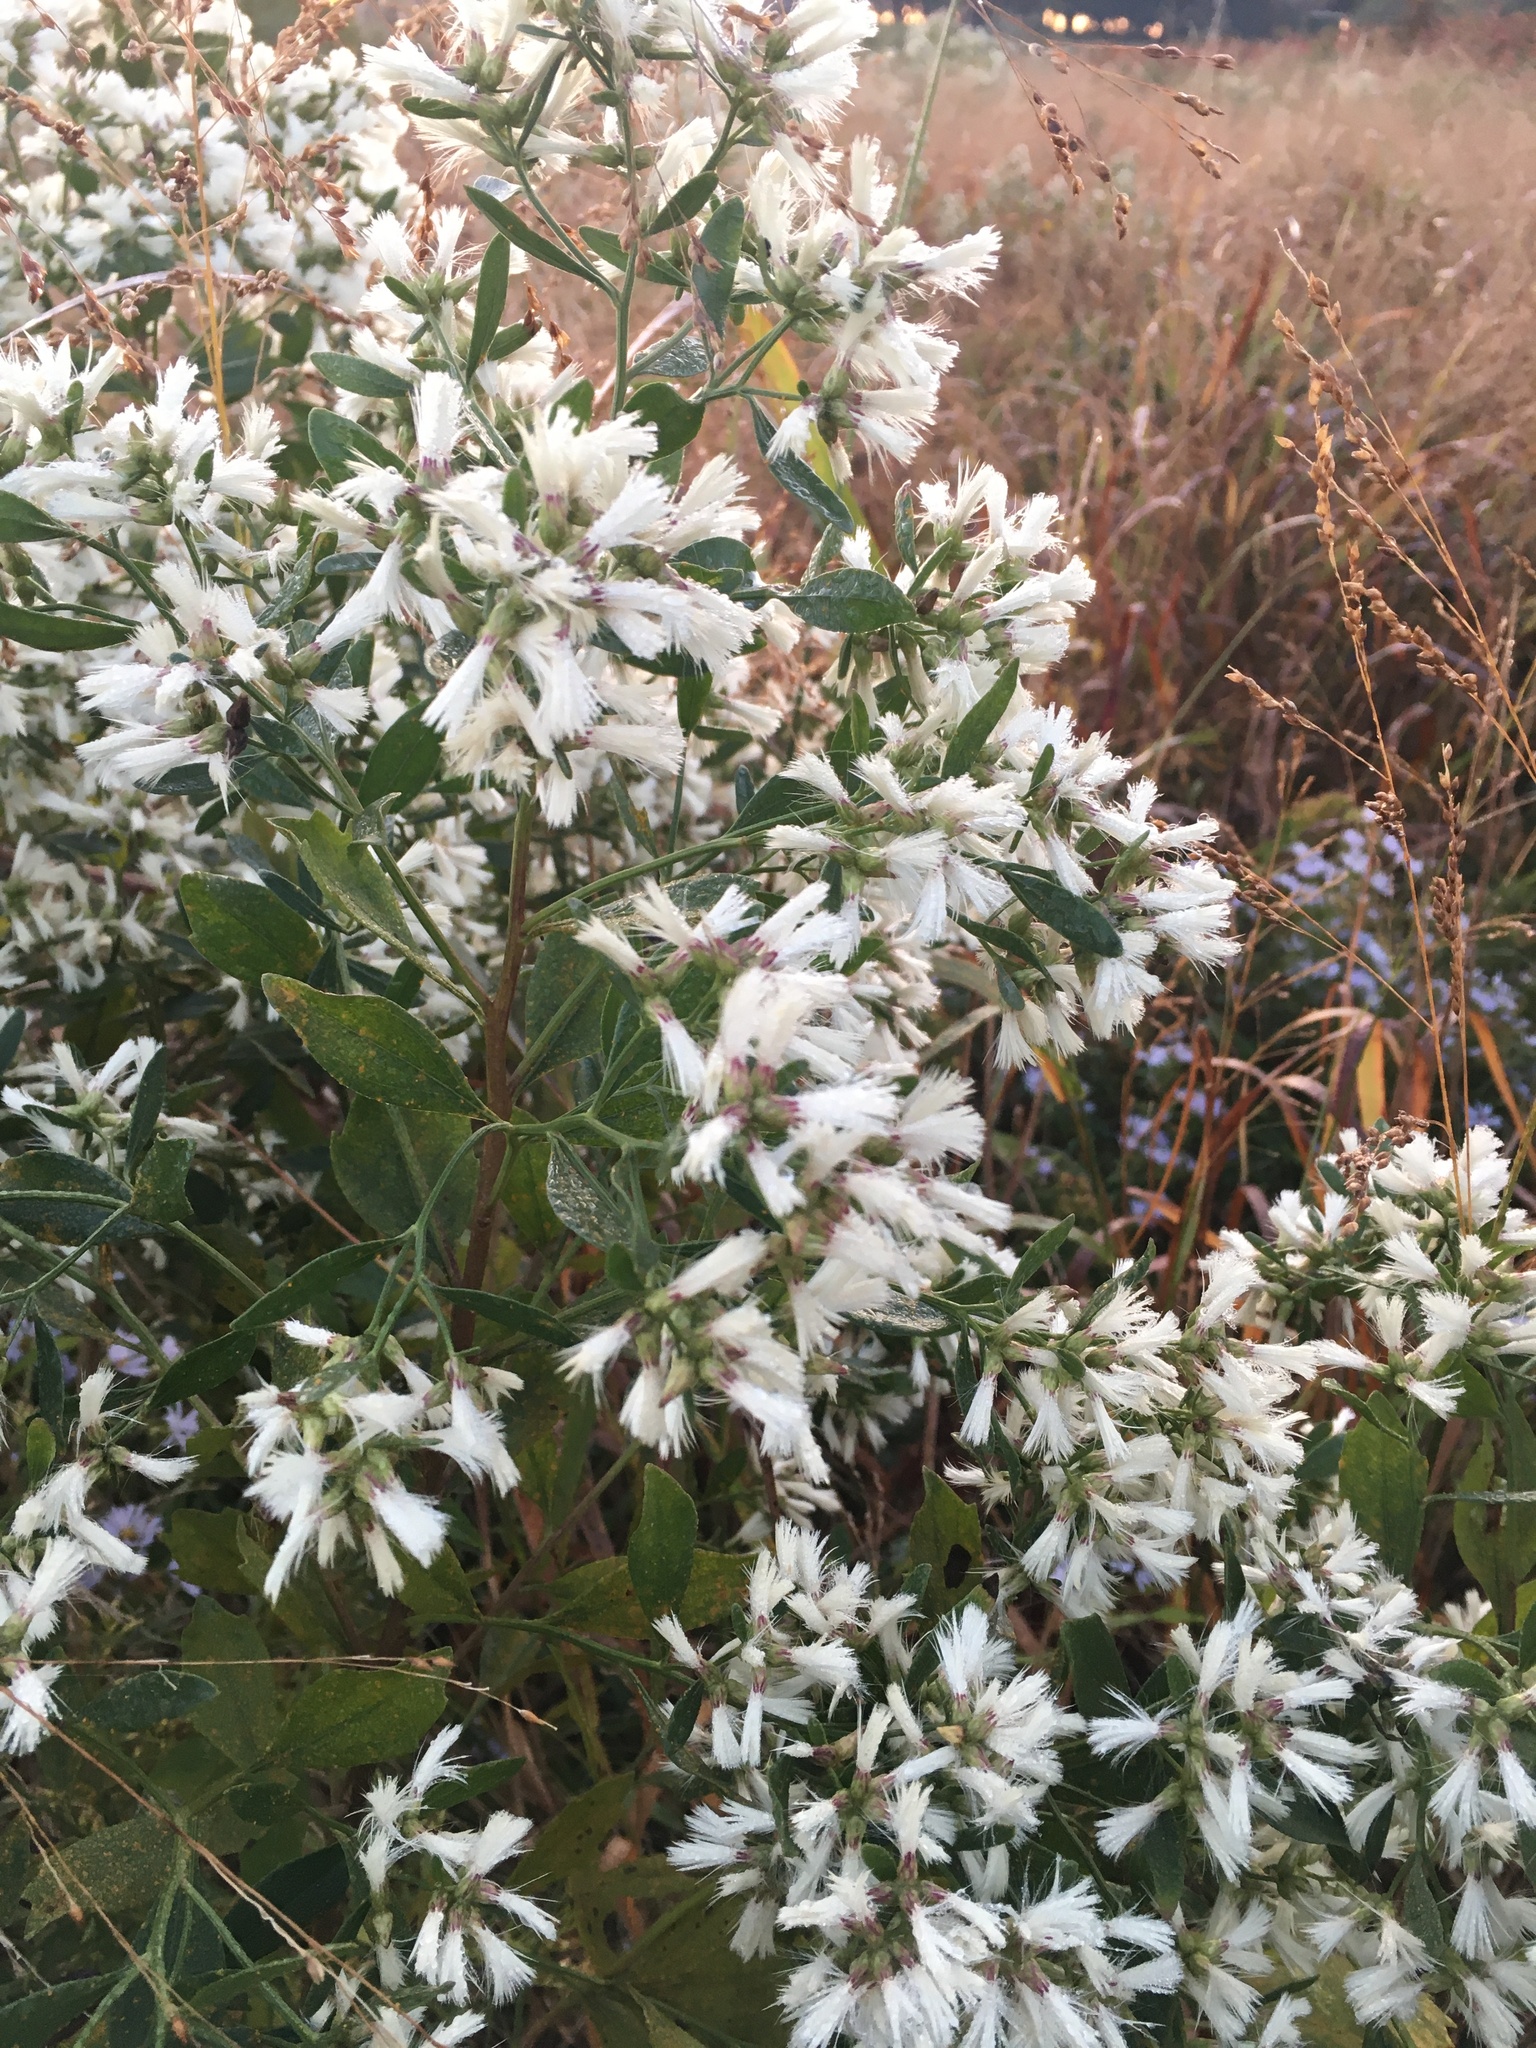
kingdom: Plantae
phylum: Tracheophyta
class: Magnoliopsida
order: Asterales
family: Asteraceae
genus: Baccharis
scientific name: Baccharis halimifolia
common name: Eastern baccharis
